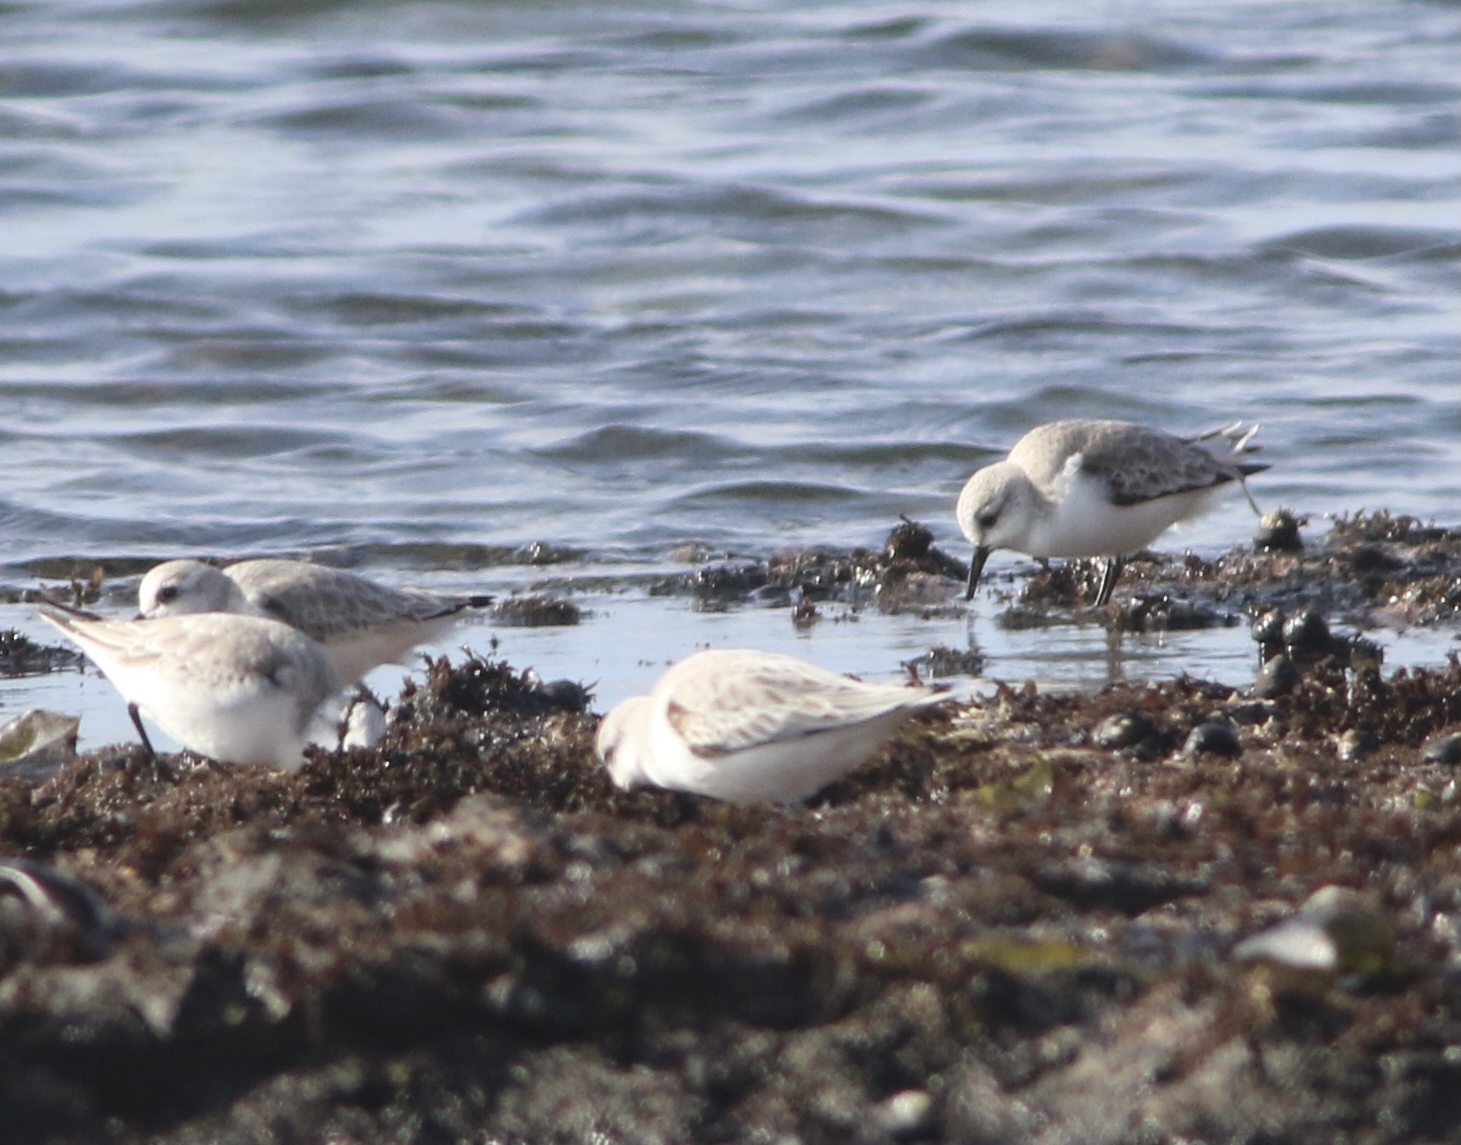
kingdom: Animalia
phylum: Chordata
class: Aves
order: Charadriiformes
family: Scolopacidae
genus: Calidris
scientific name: Calidris alba
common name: Sanderling
